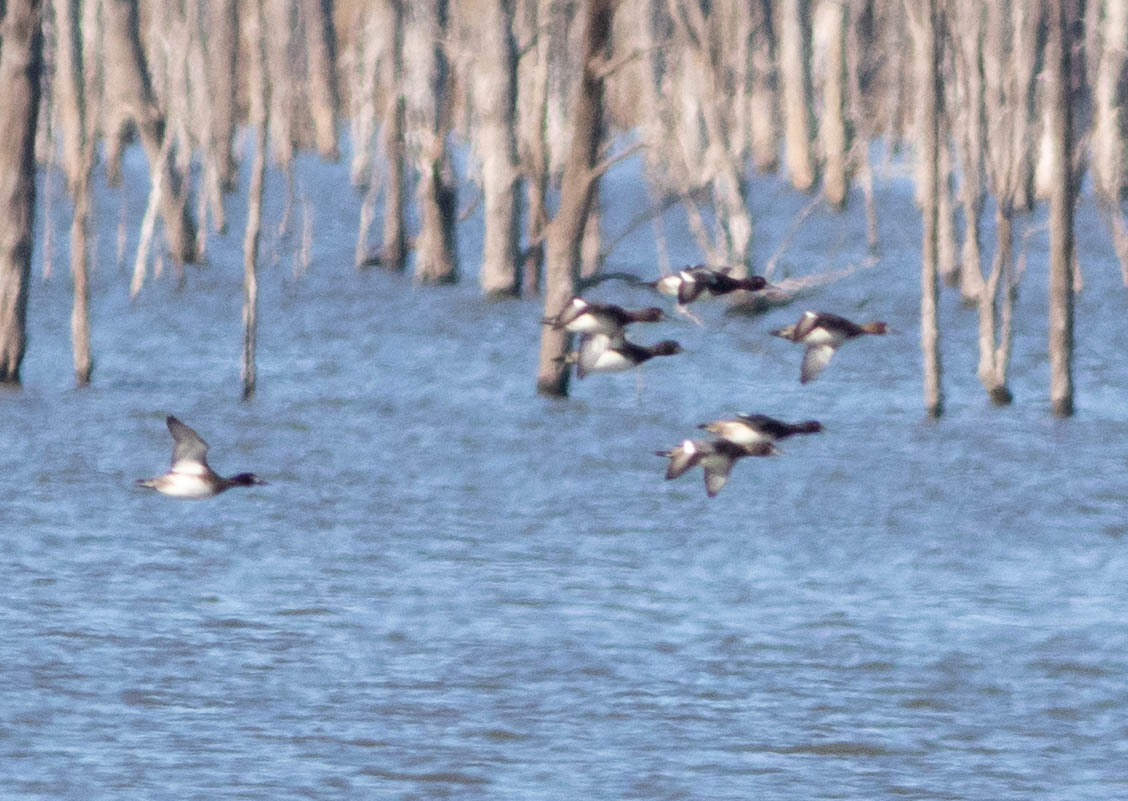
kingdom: Animalia
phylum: Chordata
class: Aves
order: Anseriformes
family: Anatidae
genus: Aythya
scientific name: Aythya collaris
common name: Ring-necked duck
